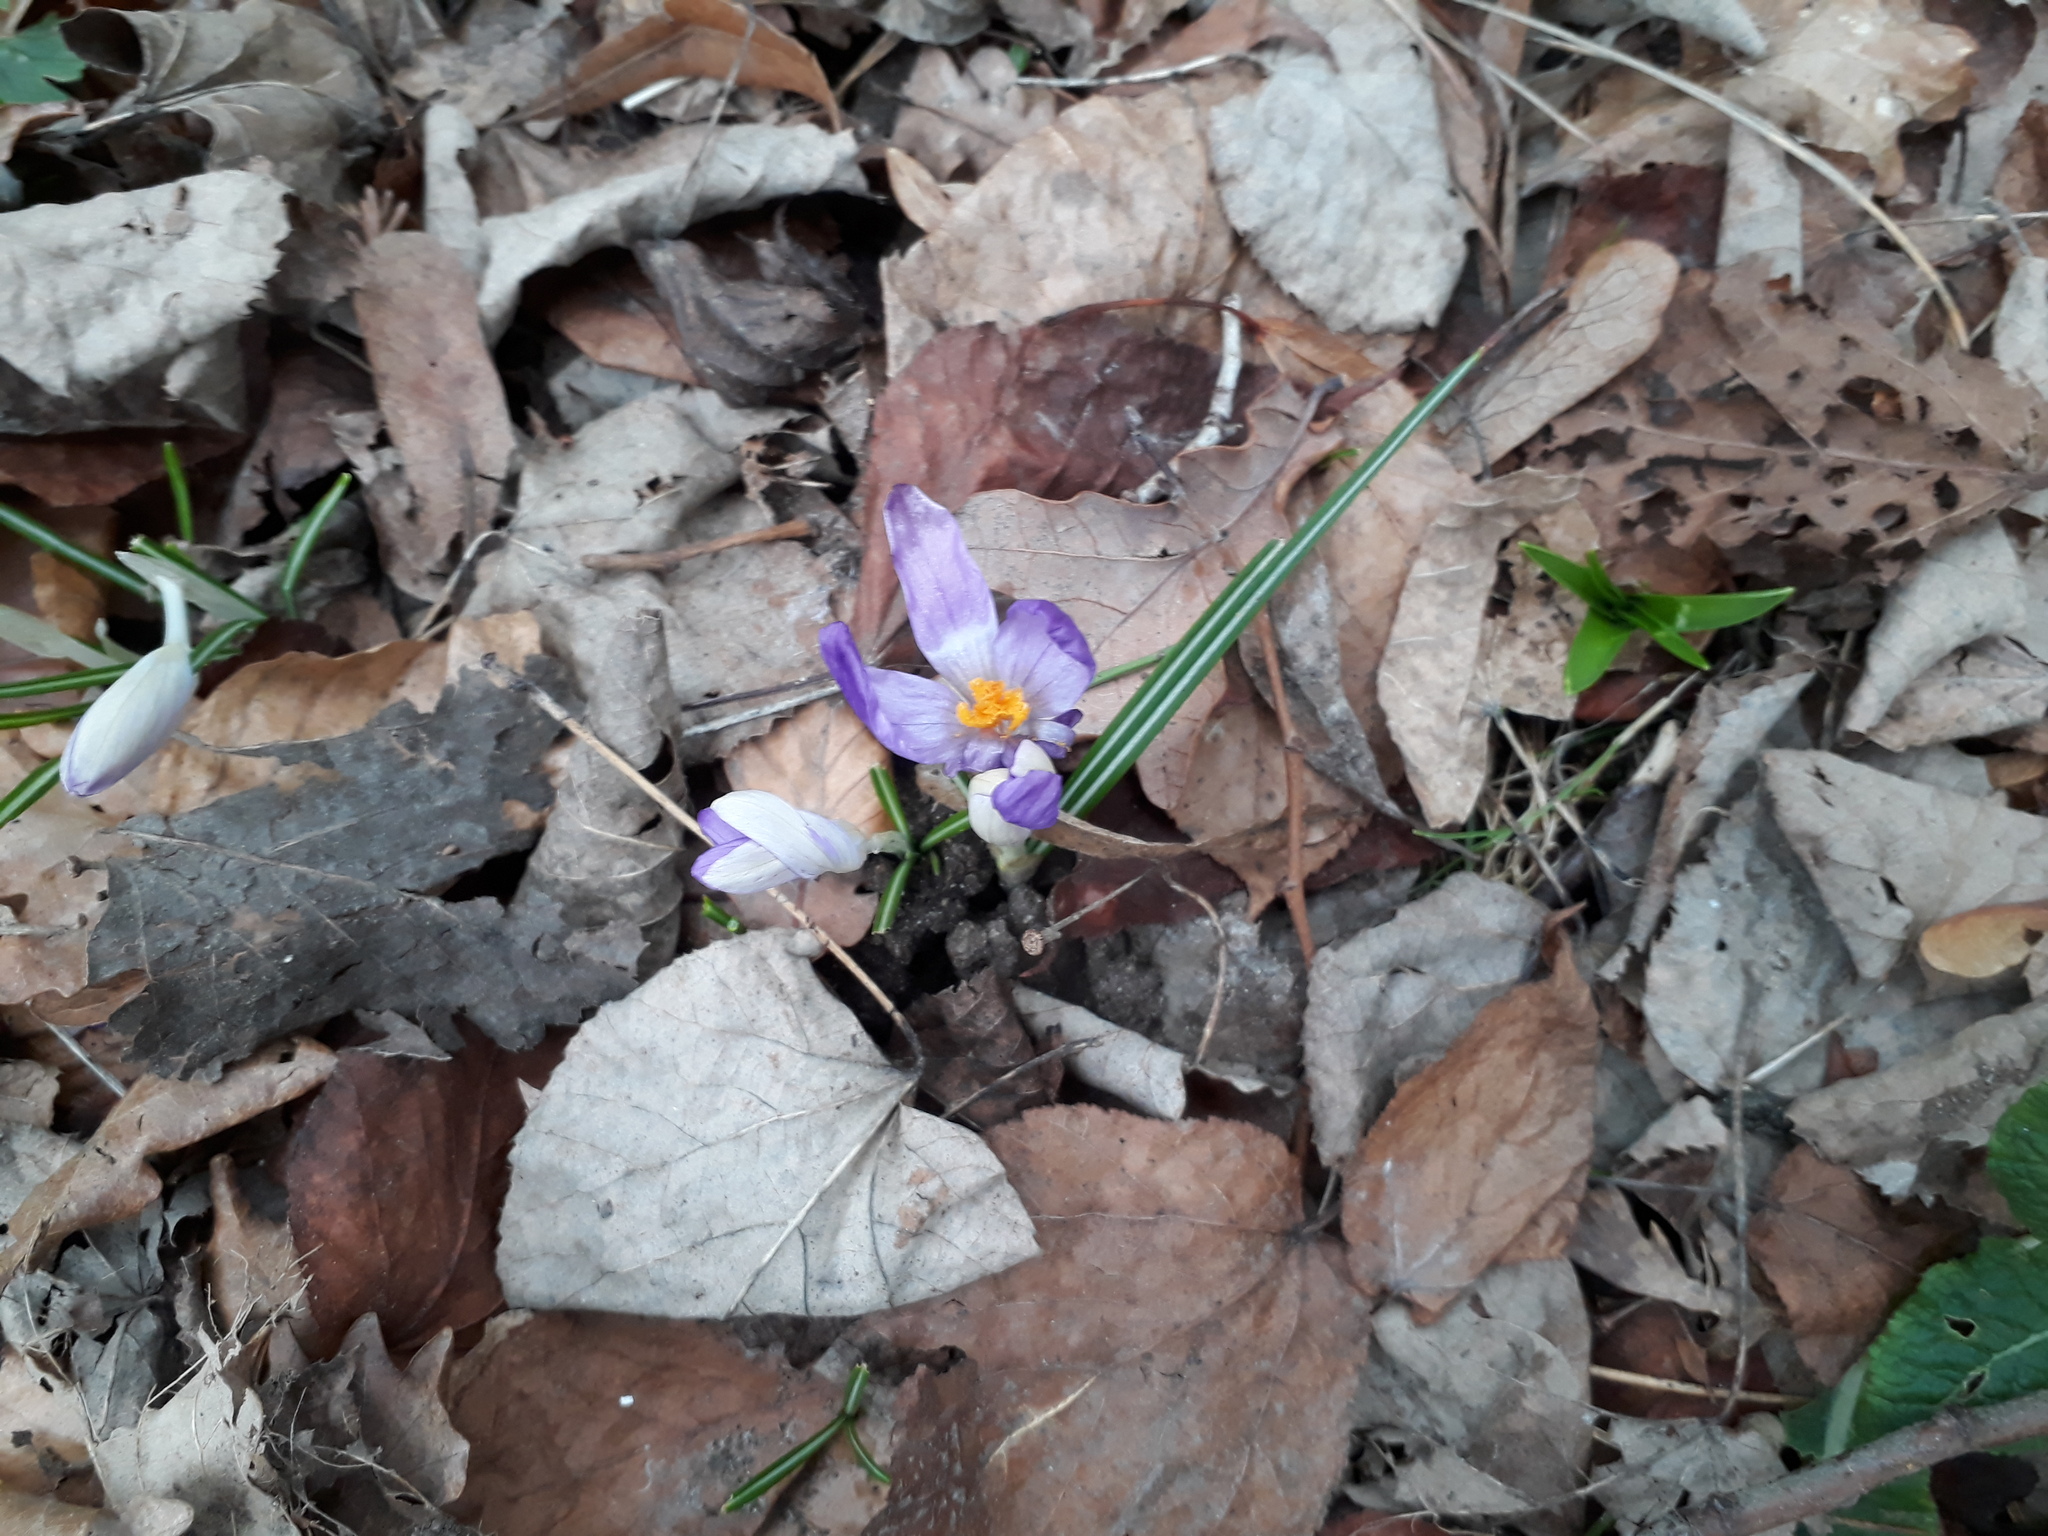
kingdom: Plantae
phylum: Tracheophyta
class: Liliopsida
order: Asparagales
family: Iridaceae
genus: Crocus
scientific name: Crocus tommasinianus
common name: Early crocus
